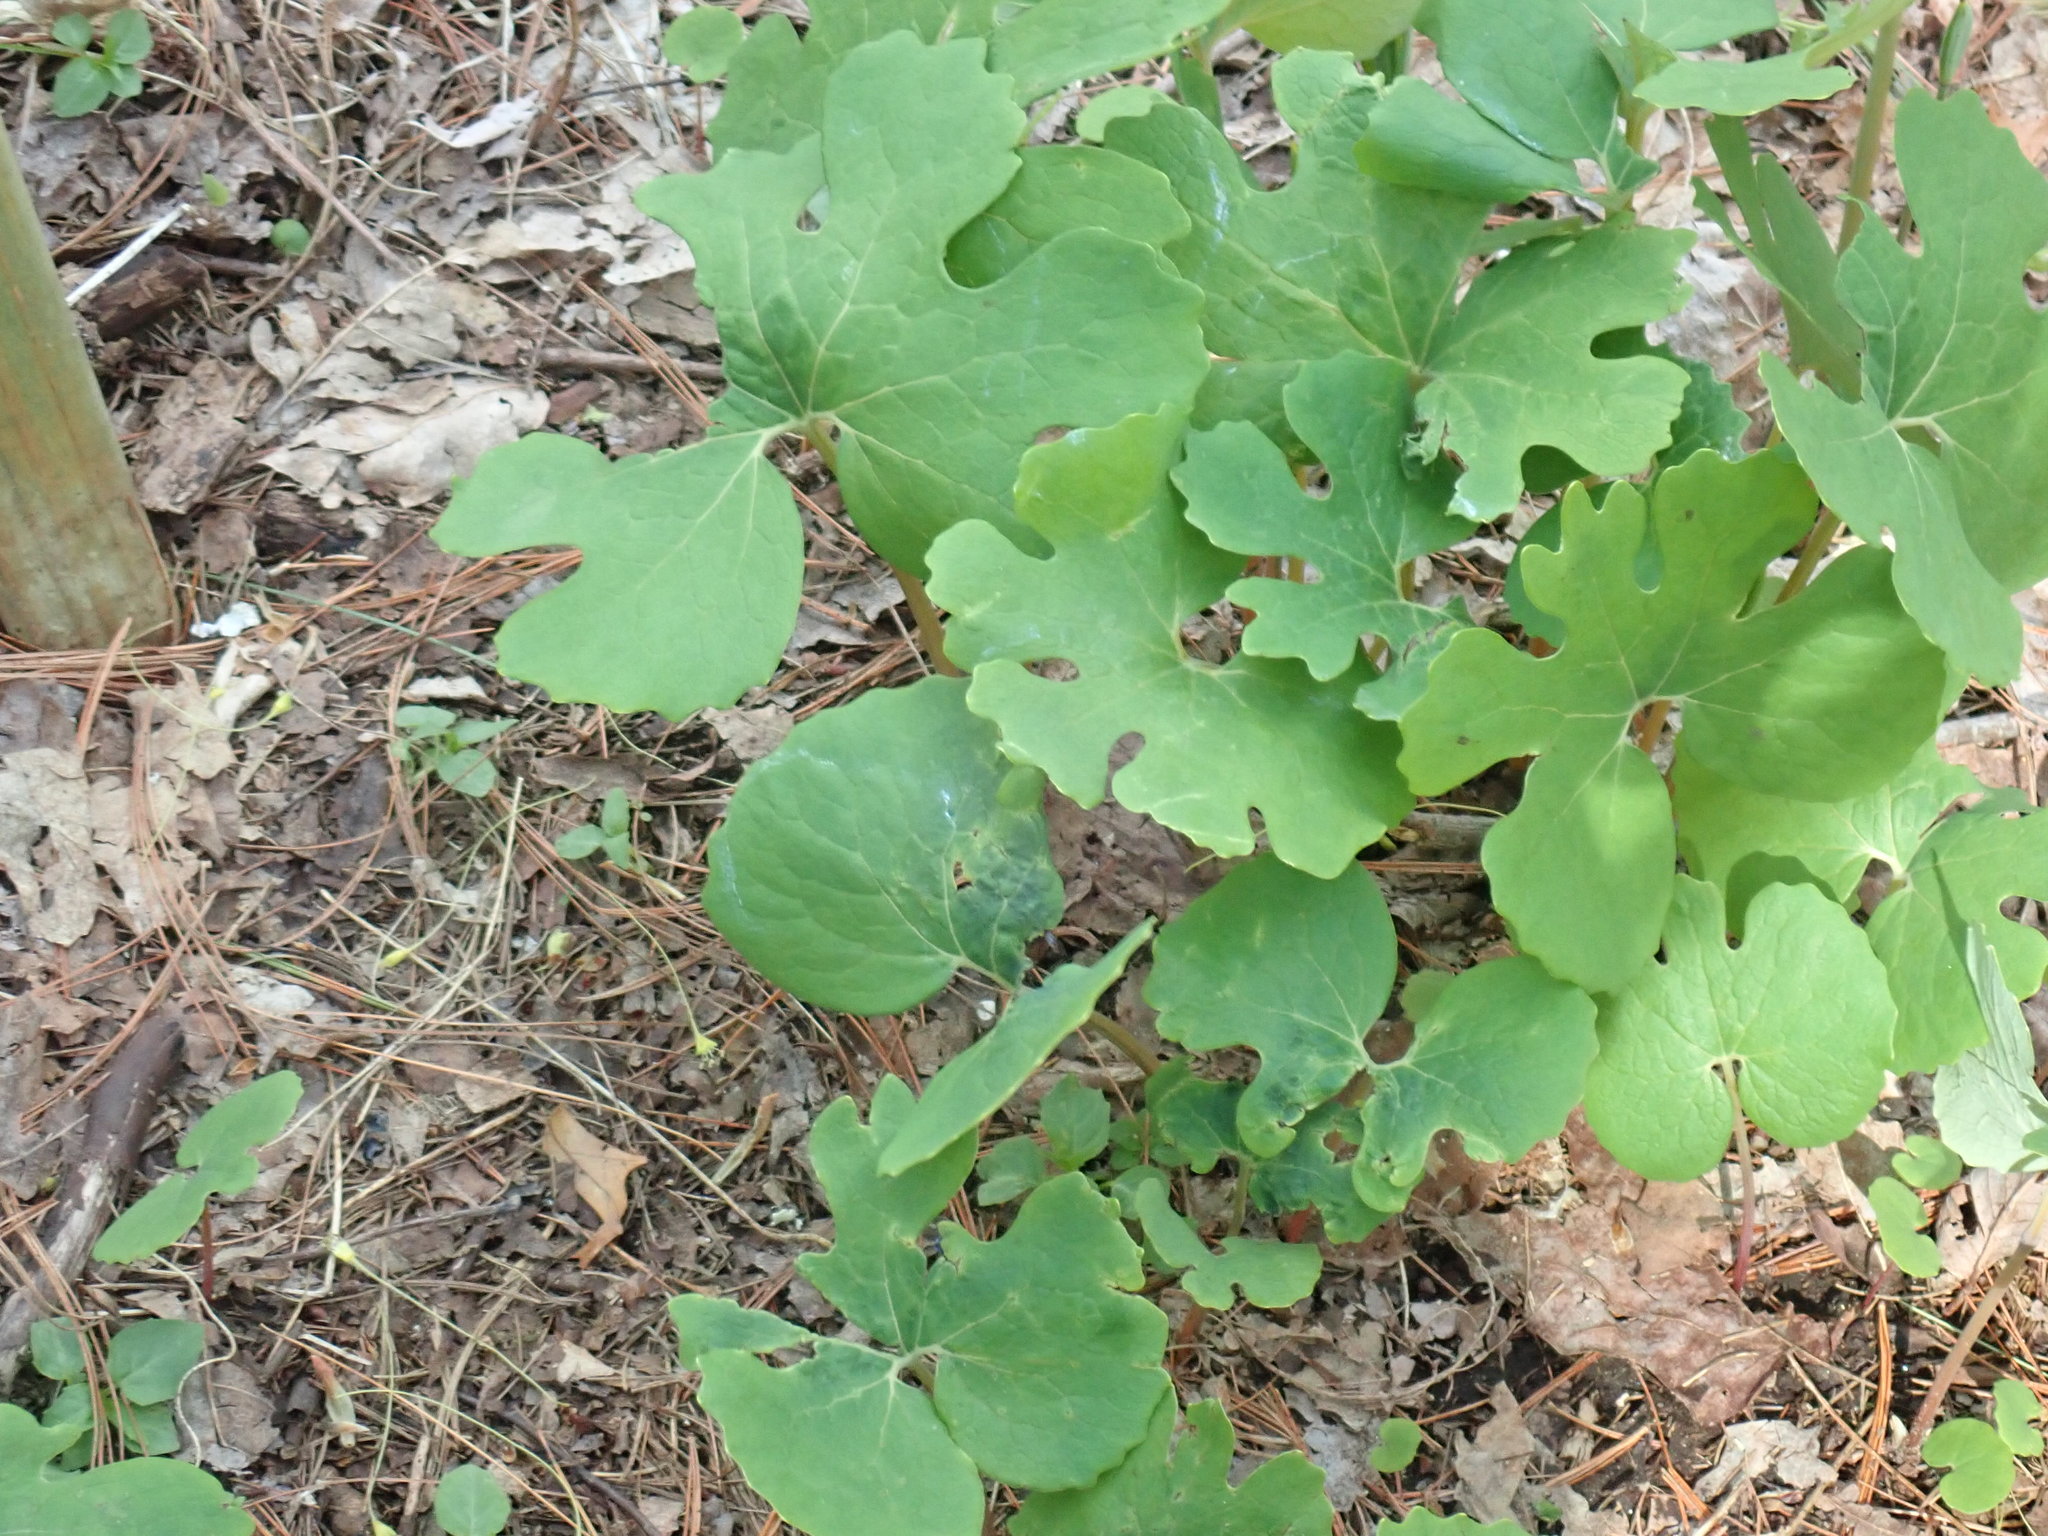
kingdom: Plantae
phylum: Tracheophyta
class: Magnoliopsida
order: Ranunculales
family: Papaveraceae
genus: Sanguinaria
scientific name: Sanguinaria canadensis
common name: Bloodroot
